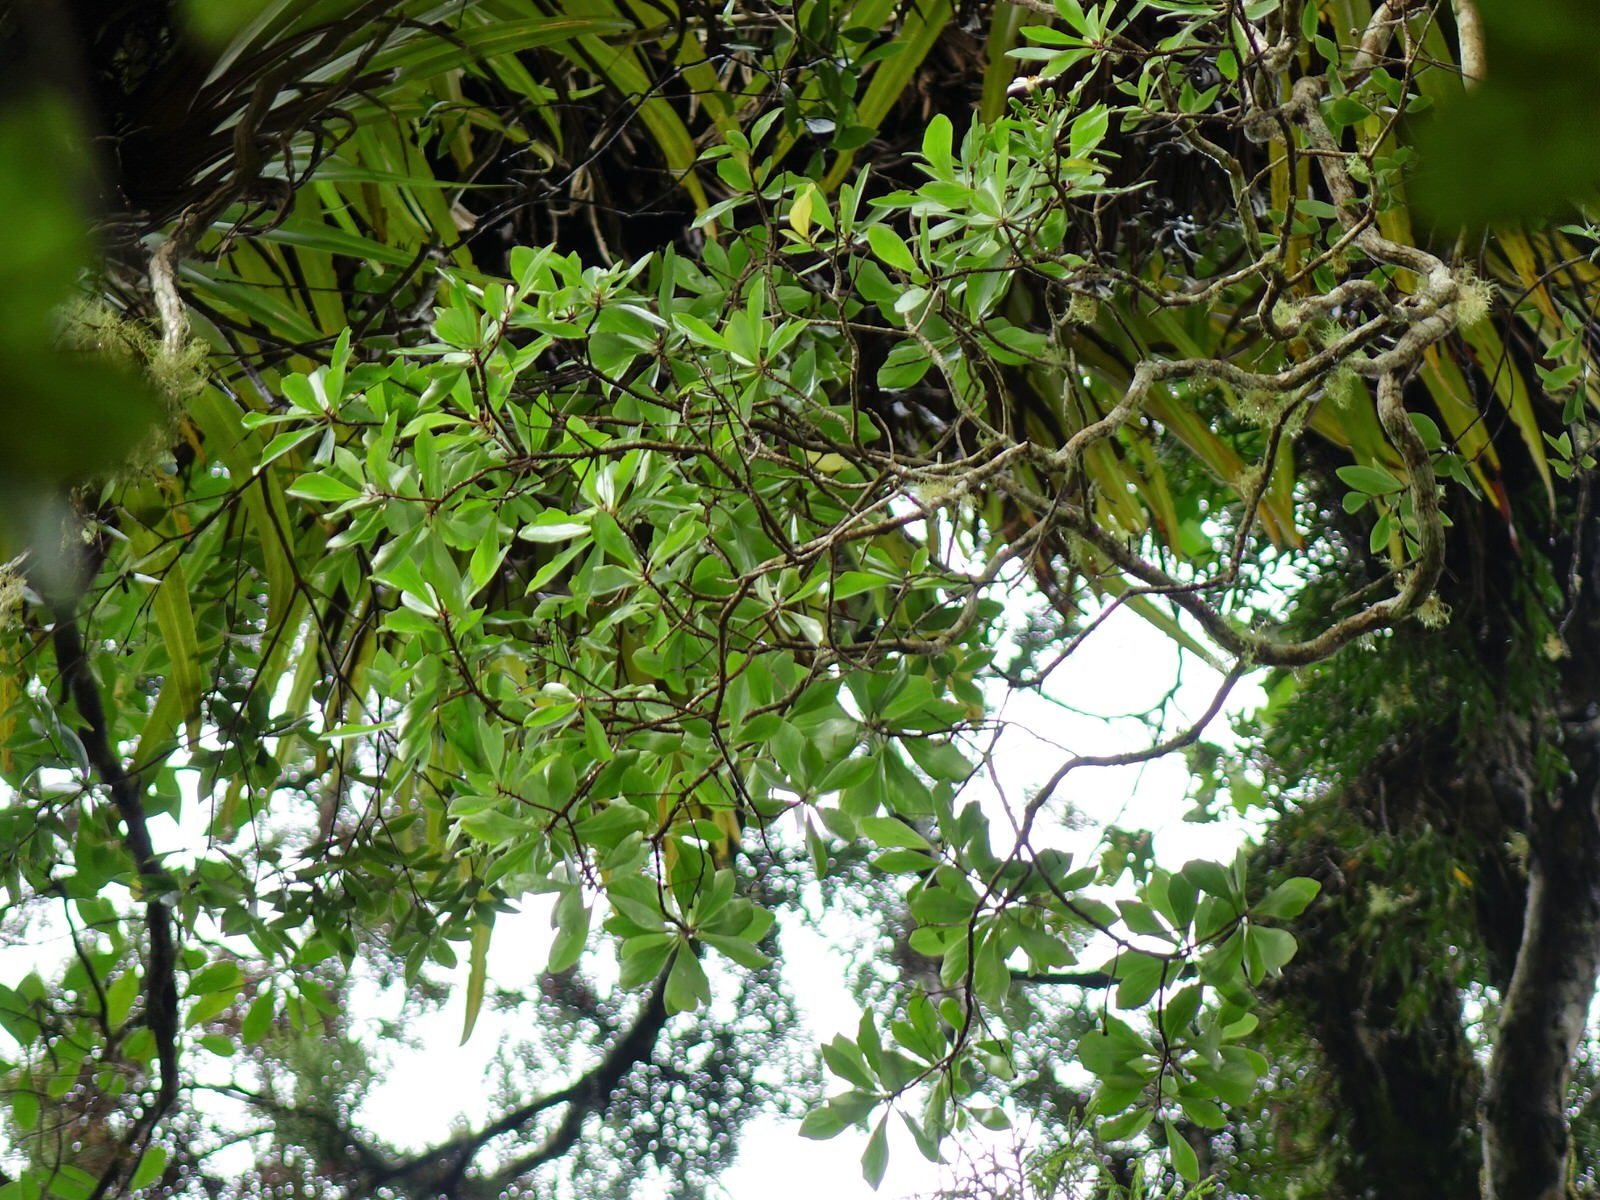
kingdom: Plantae
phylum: Tracheophyta
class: Magnoliopsida
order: Asterales
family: Asteraceae
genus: Brachyglottis
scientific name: Brachyglottis kirkii
